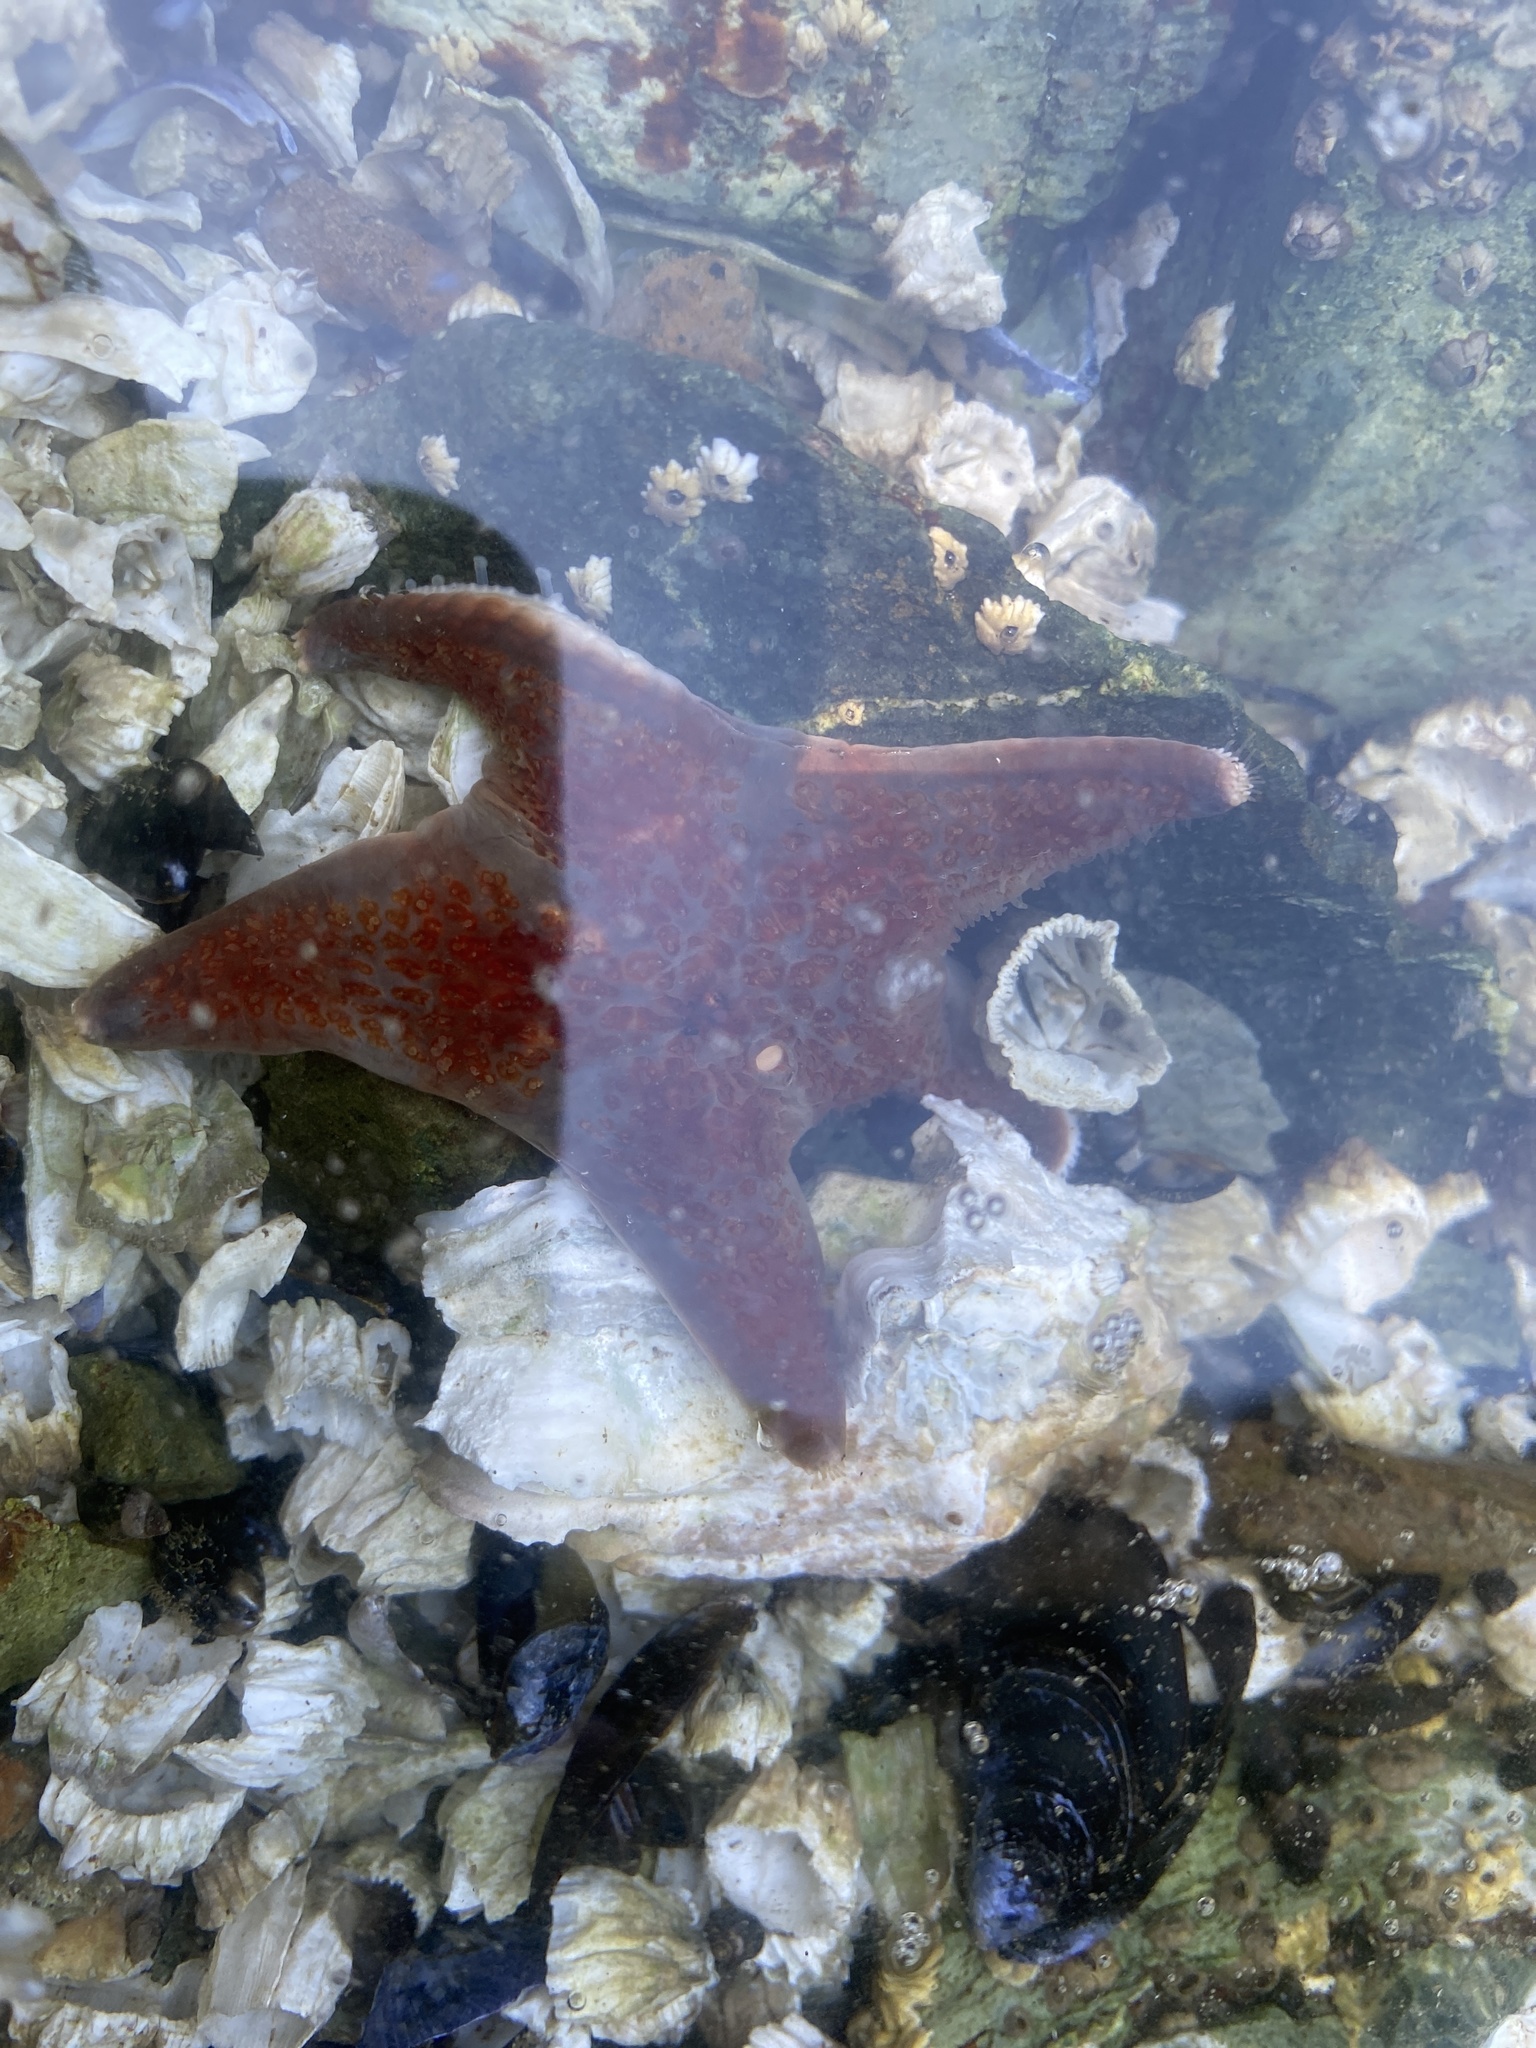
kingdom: Animalia
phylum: Echinodermata
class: Asteroidea
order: Valvatida
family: Asteropseidae
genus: Dermasterias
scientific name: Dermasterias imbricata
